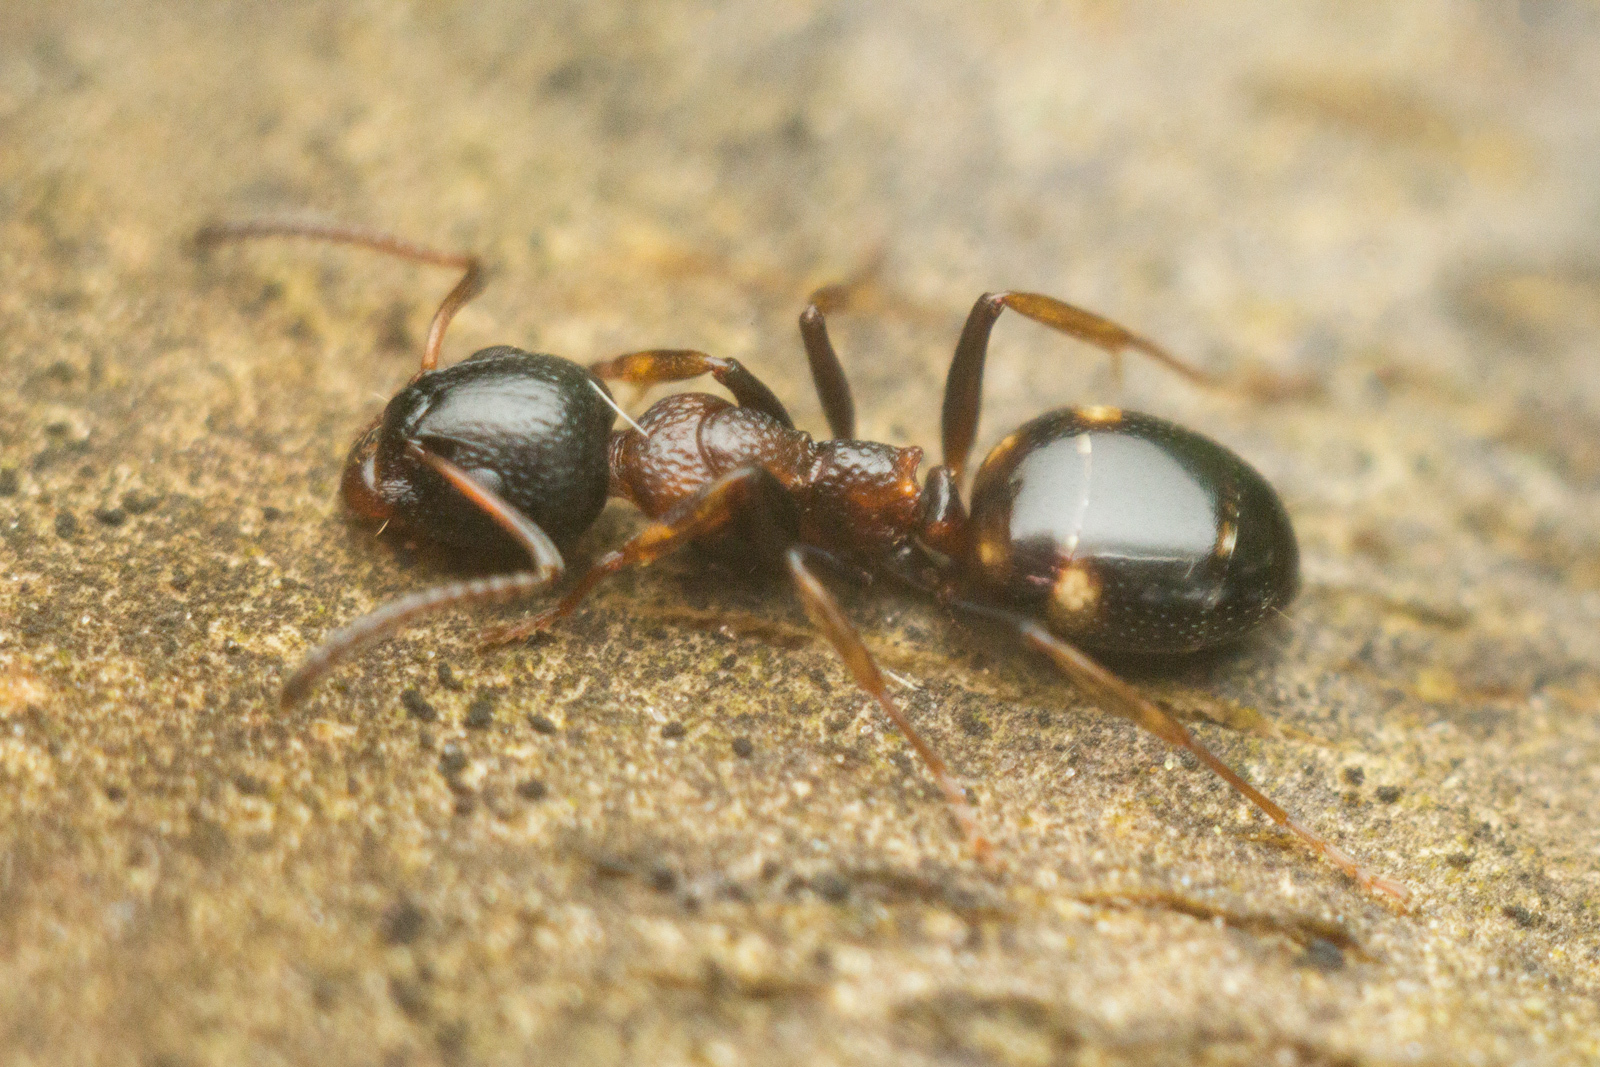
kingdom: Animalia
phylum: Arthropoda
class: Insecta
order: Hymenoptera
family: Formicidae
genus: Dolichoderus
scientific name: Dolichoderus quadripunctatus
